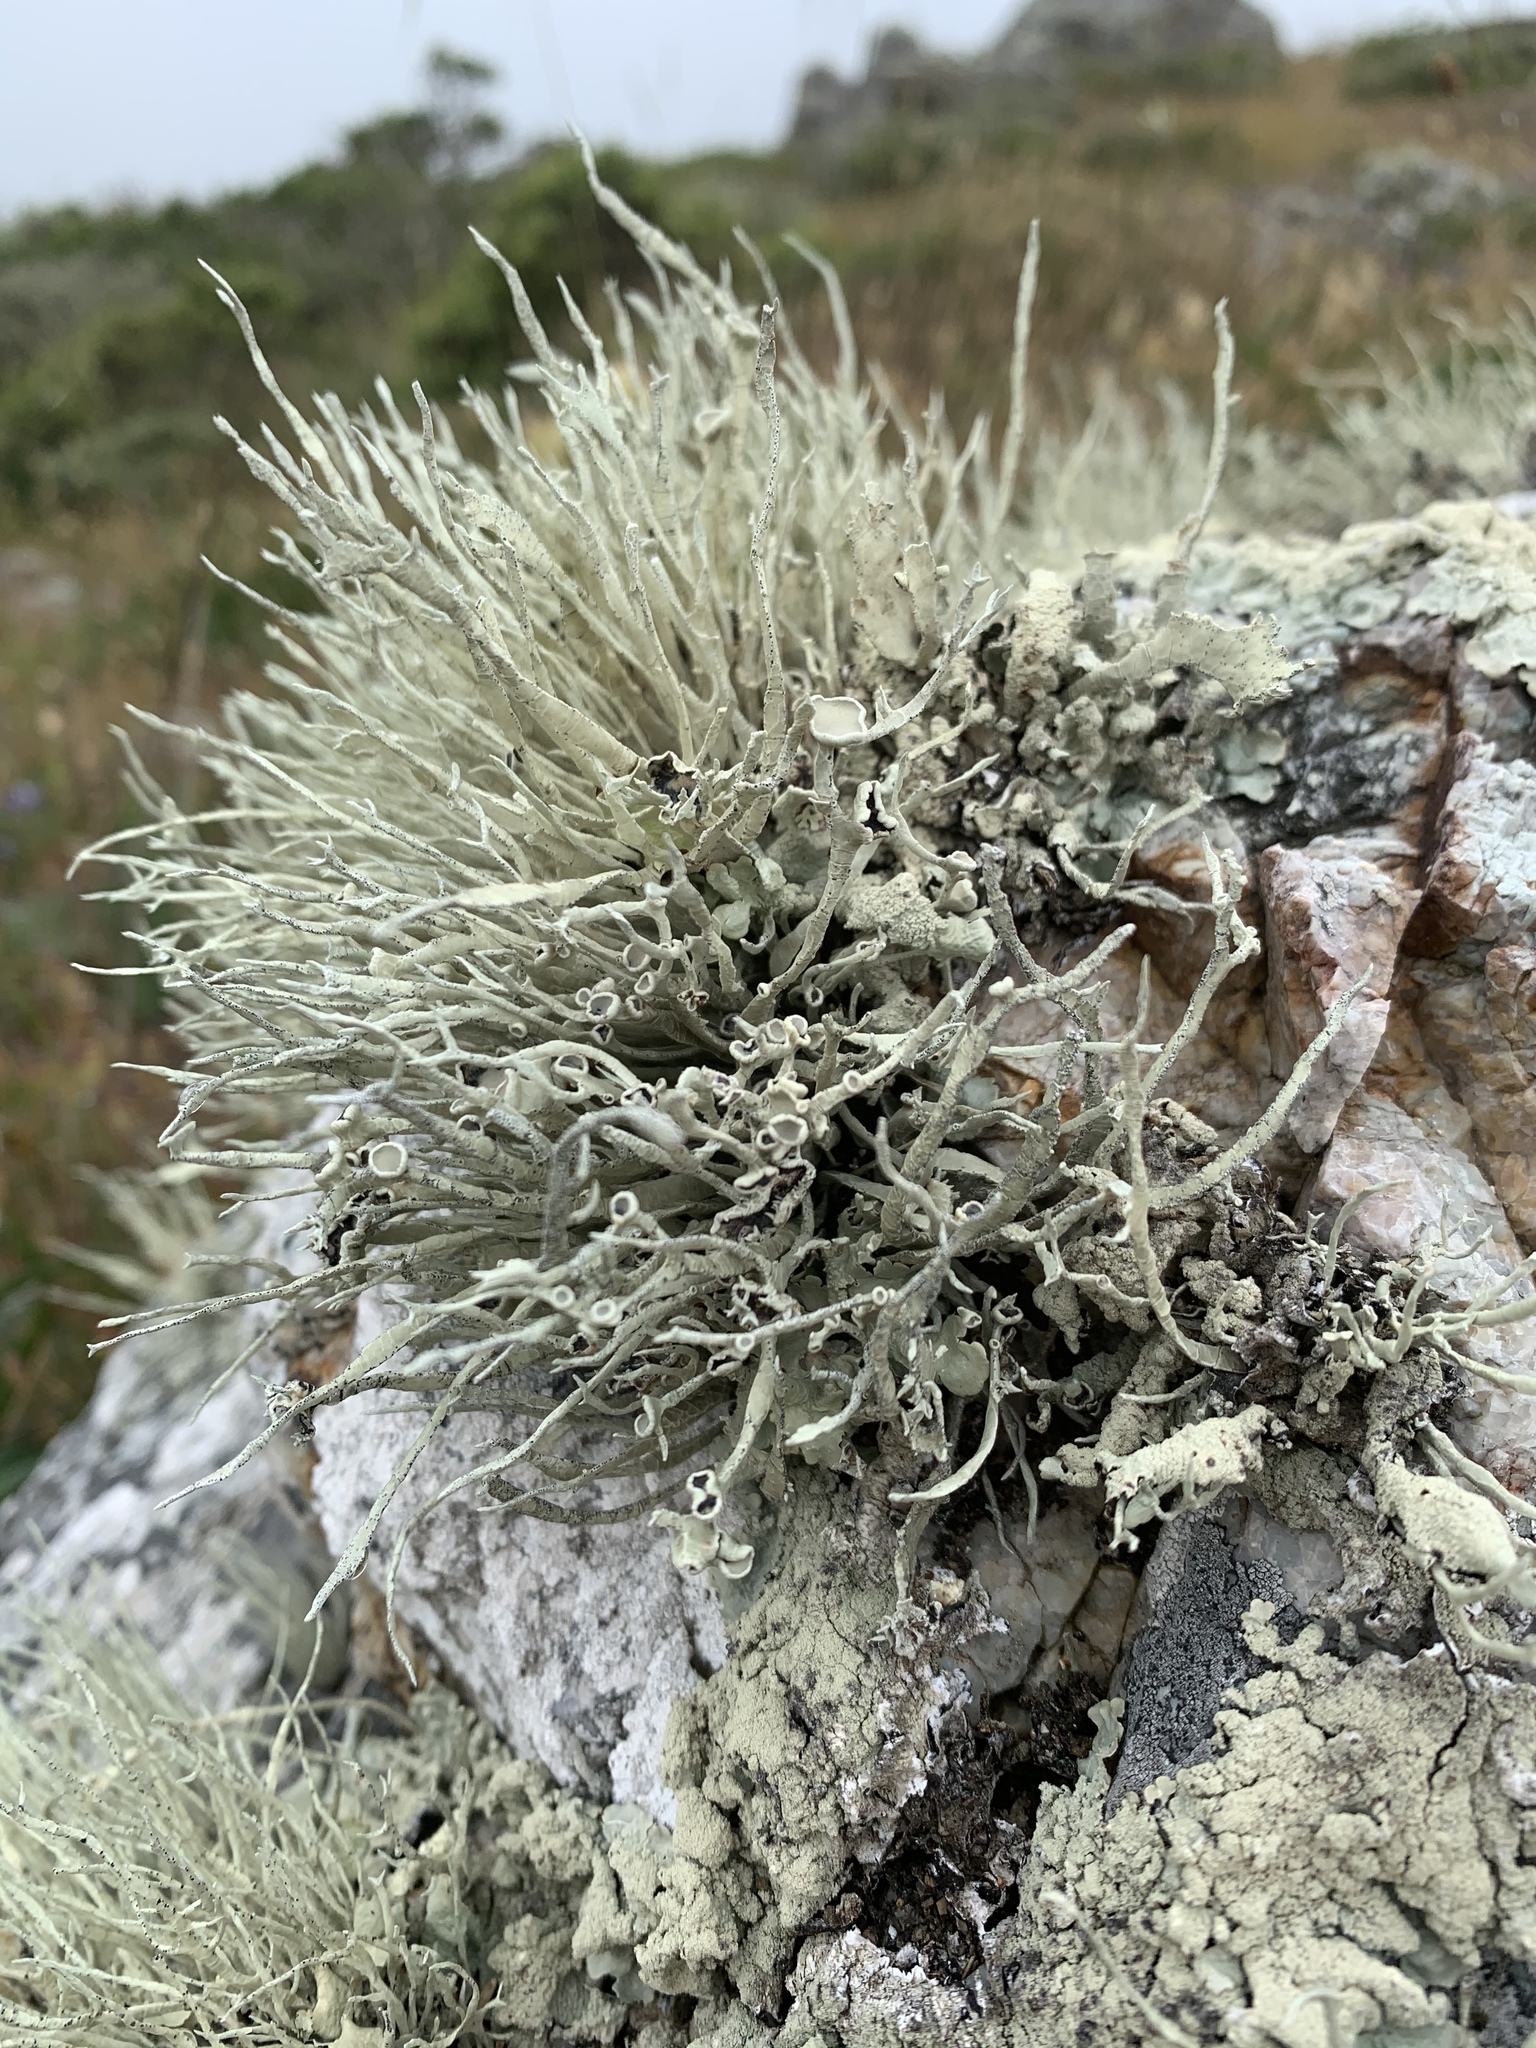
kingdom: Fungi
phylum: Ascomycota
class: Lecanoromycetes
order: Lecanorales
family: Ramalinaceae
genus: Niebla
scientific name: Niebla homalea
